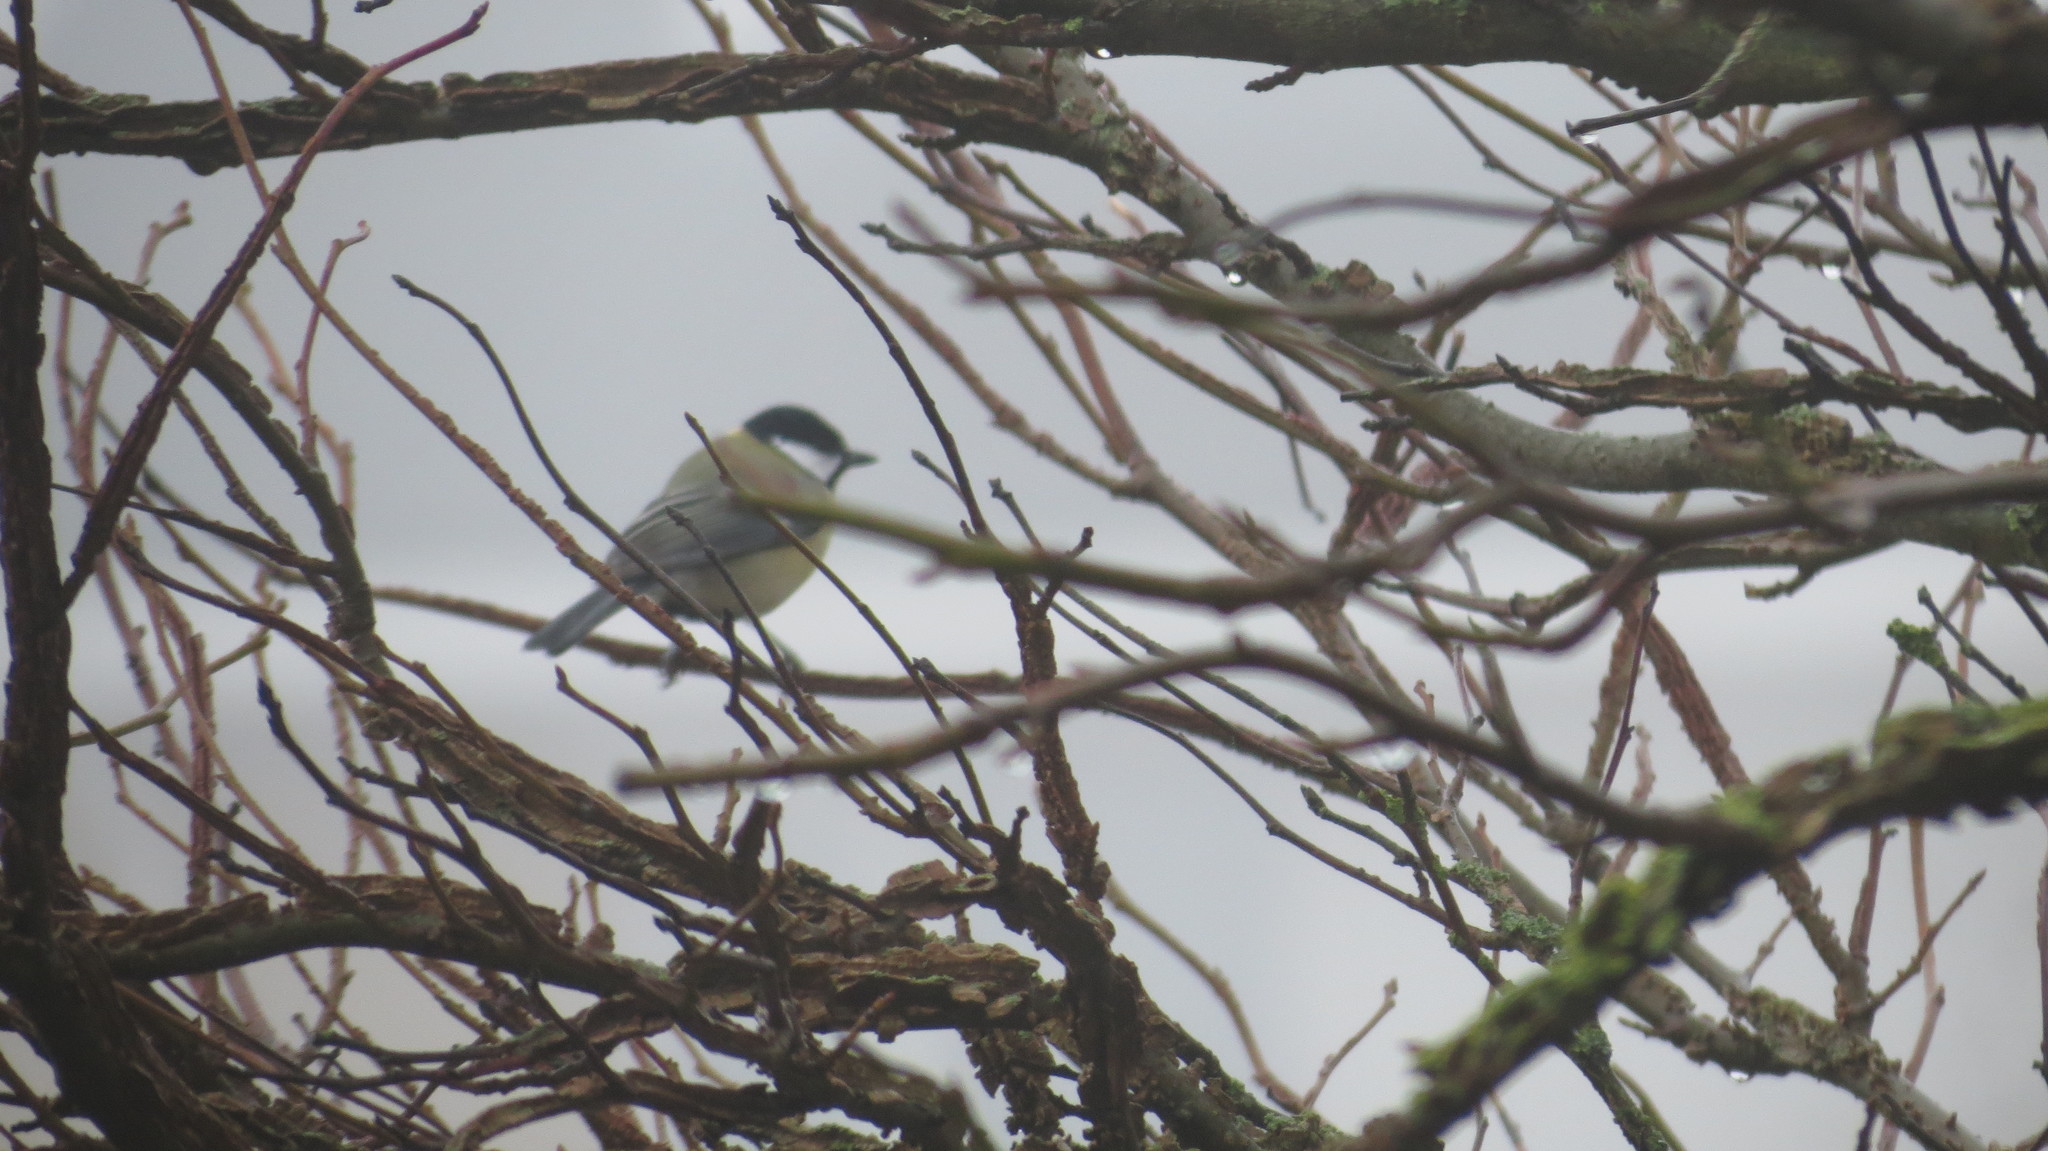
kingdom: Animalia
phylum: Chordata
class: Aves
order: Passeriformes
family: Paridae
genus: Parus
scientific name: Parus major
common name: Great tit
